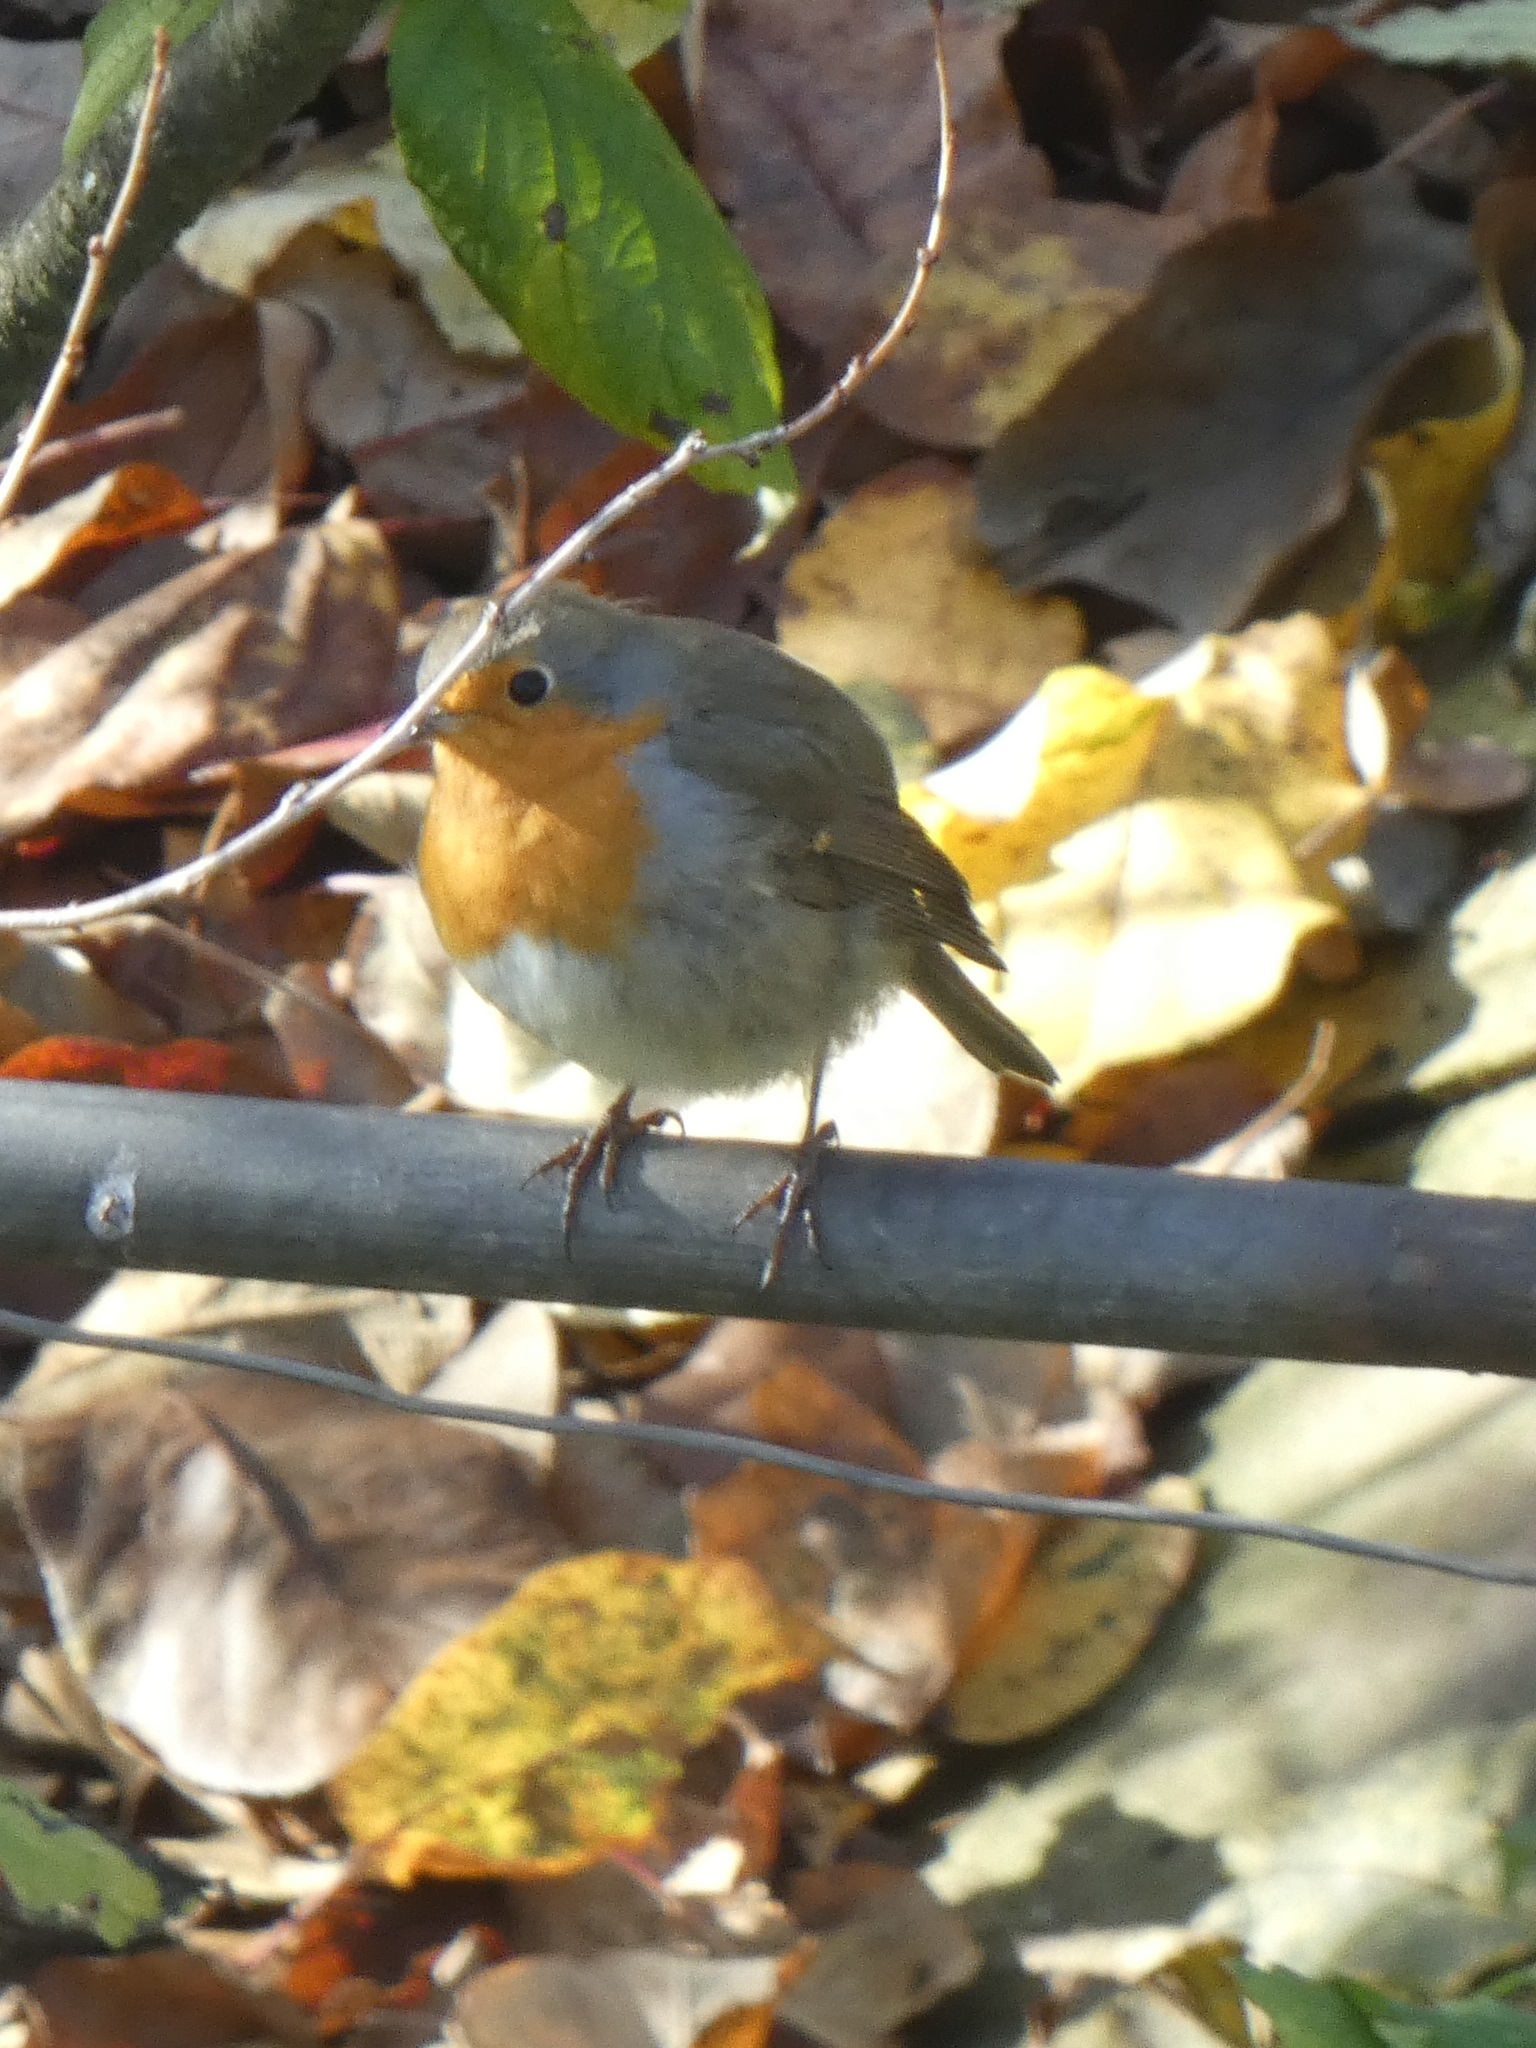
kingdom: Animalia
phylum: Chordata
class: Aves
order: Passeriformes
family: Muscicapidae
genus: Erithacus
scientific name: Erithacus rubecula
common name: European robin
